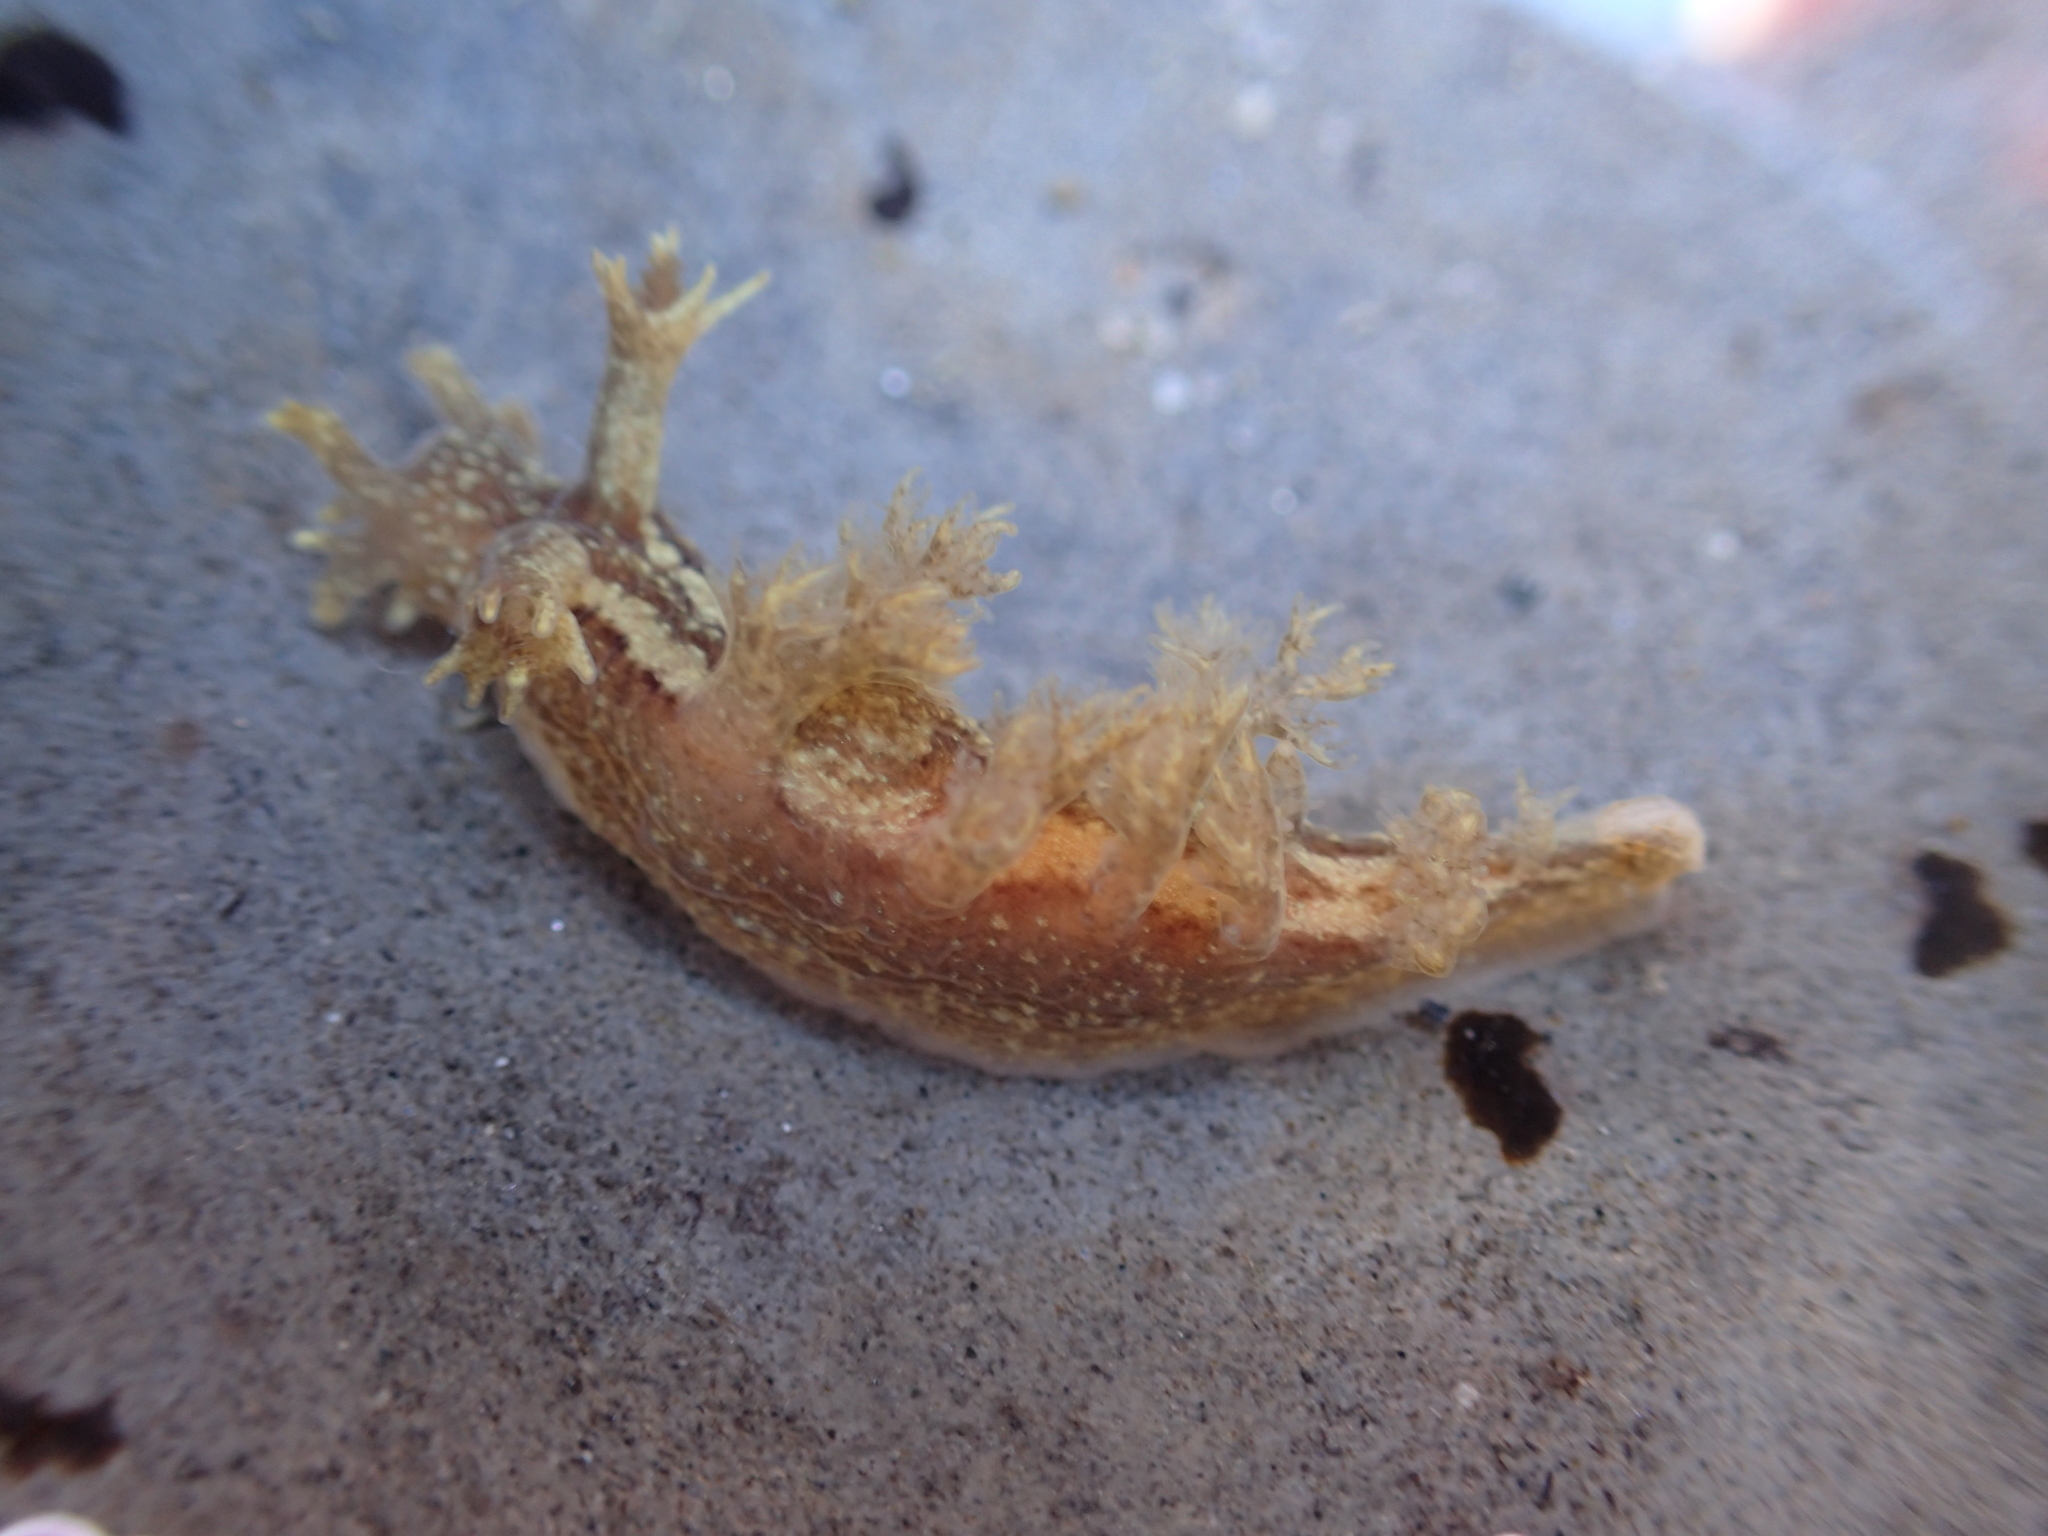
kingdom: Animalia
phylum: Mollusca
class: Gastropoda
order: Nudibranchia
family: Dendronotidae
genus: Dendronotus
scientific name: Dendronotus subramosus
